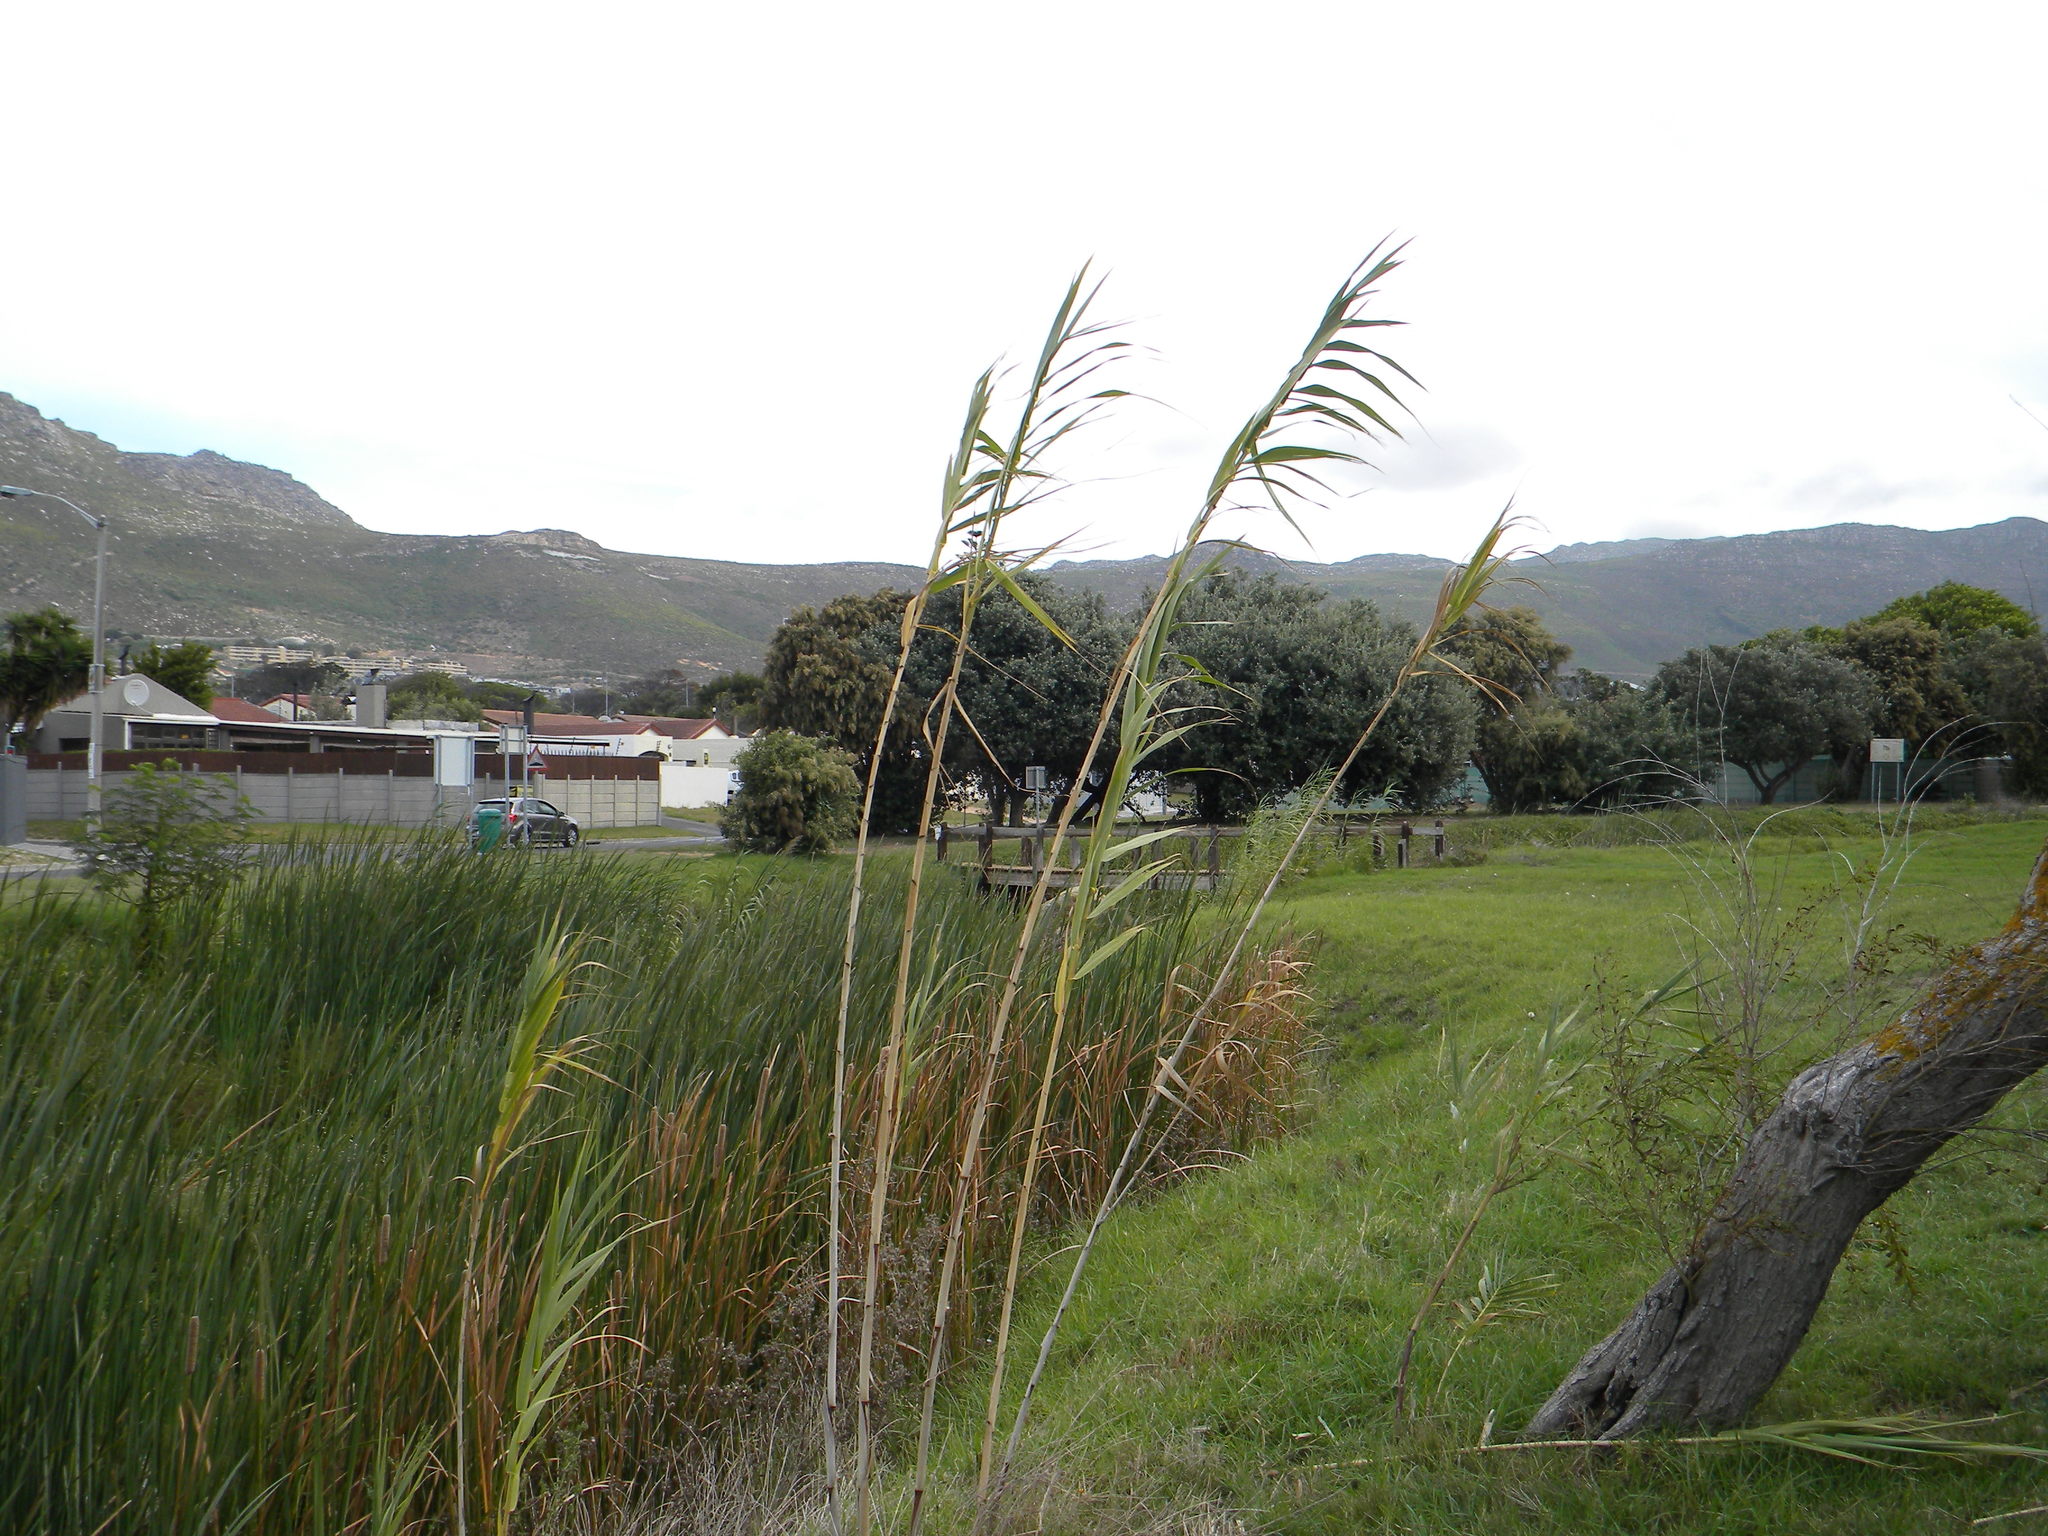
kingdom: Plantae
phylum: Tracheophyta
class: Liliopsida
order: Poales
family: Poaceae
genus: Arundo
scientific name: Arundo donax
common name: Giant reed
